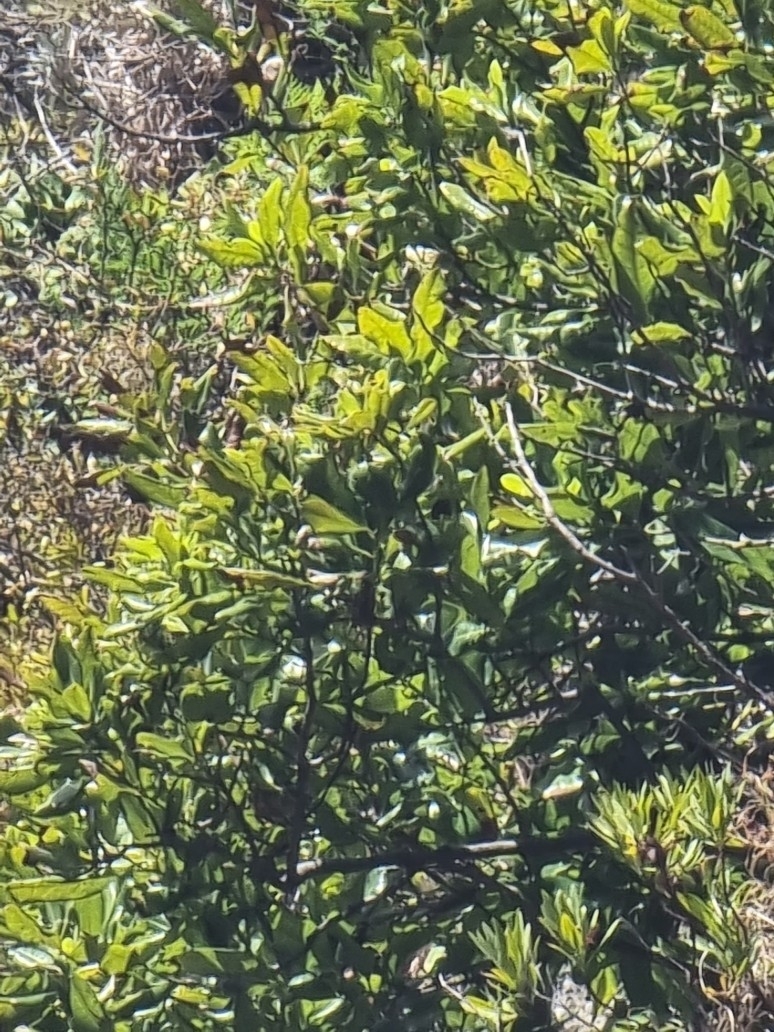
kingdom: Plantae
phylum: Tracheophyta
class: Magnoliopsida
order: Laurales
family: Lauraceae
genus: Apollonias
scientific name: Apollonias barbujana
